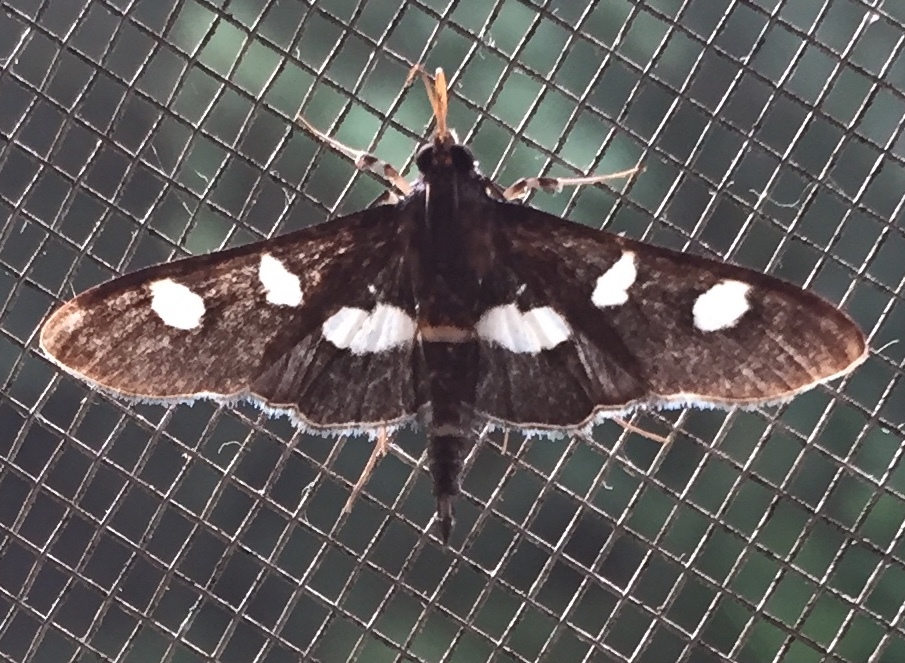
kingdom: Animalia
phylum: Arthropoda
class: Insecta
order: Lepidoptera
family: Crambidae
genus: Desmia
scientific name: Desmia funeralis
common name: Grape leaf folder moth
